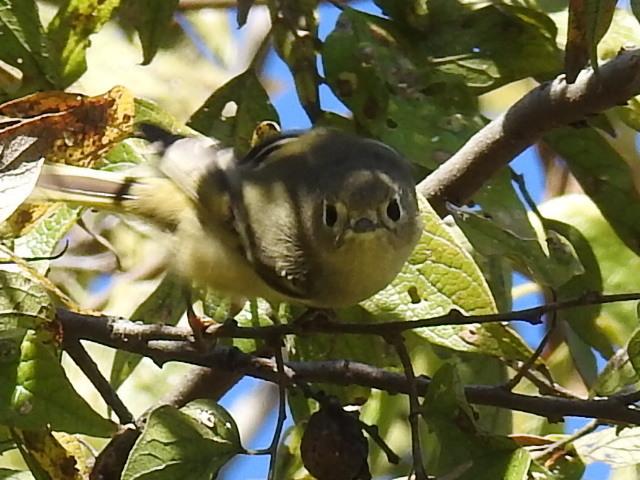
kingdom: Animalia
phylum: Chordata
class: Aves
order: Passeriformes
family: Regulidae
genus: Regulus
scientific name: Regulus calendula
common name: Ruby-crowned kinglet
